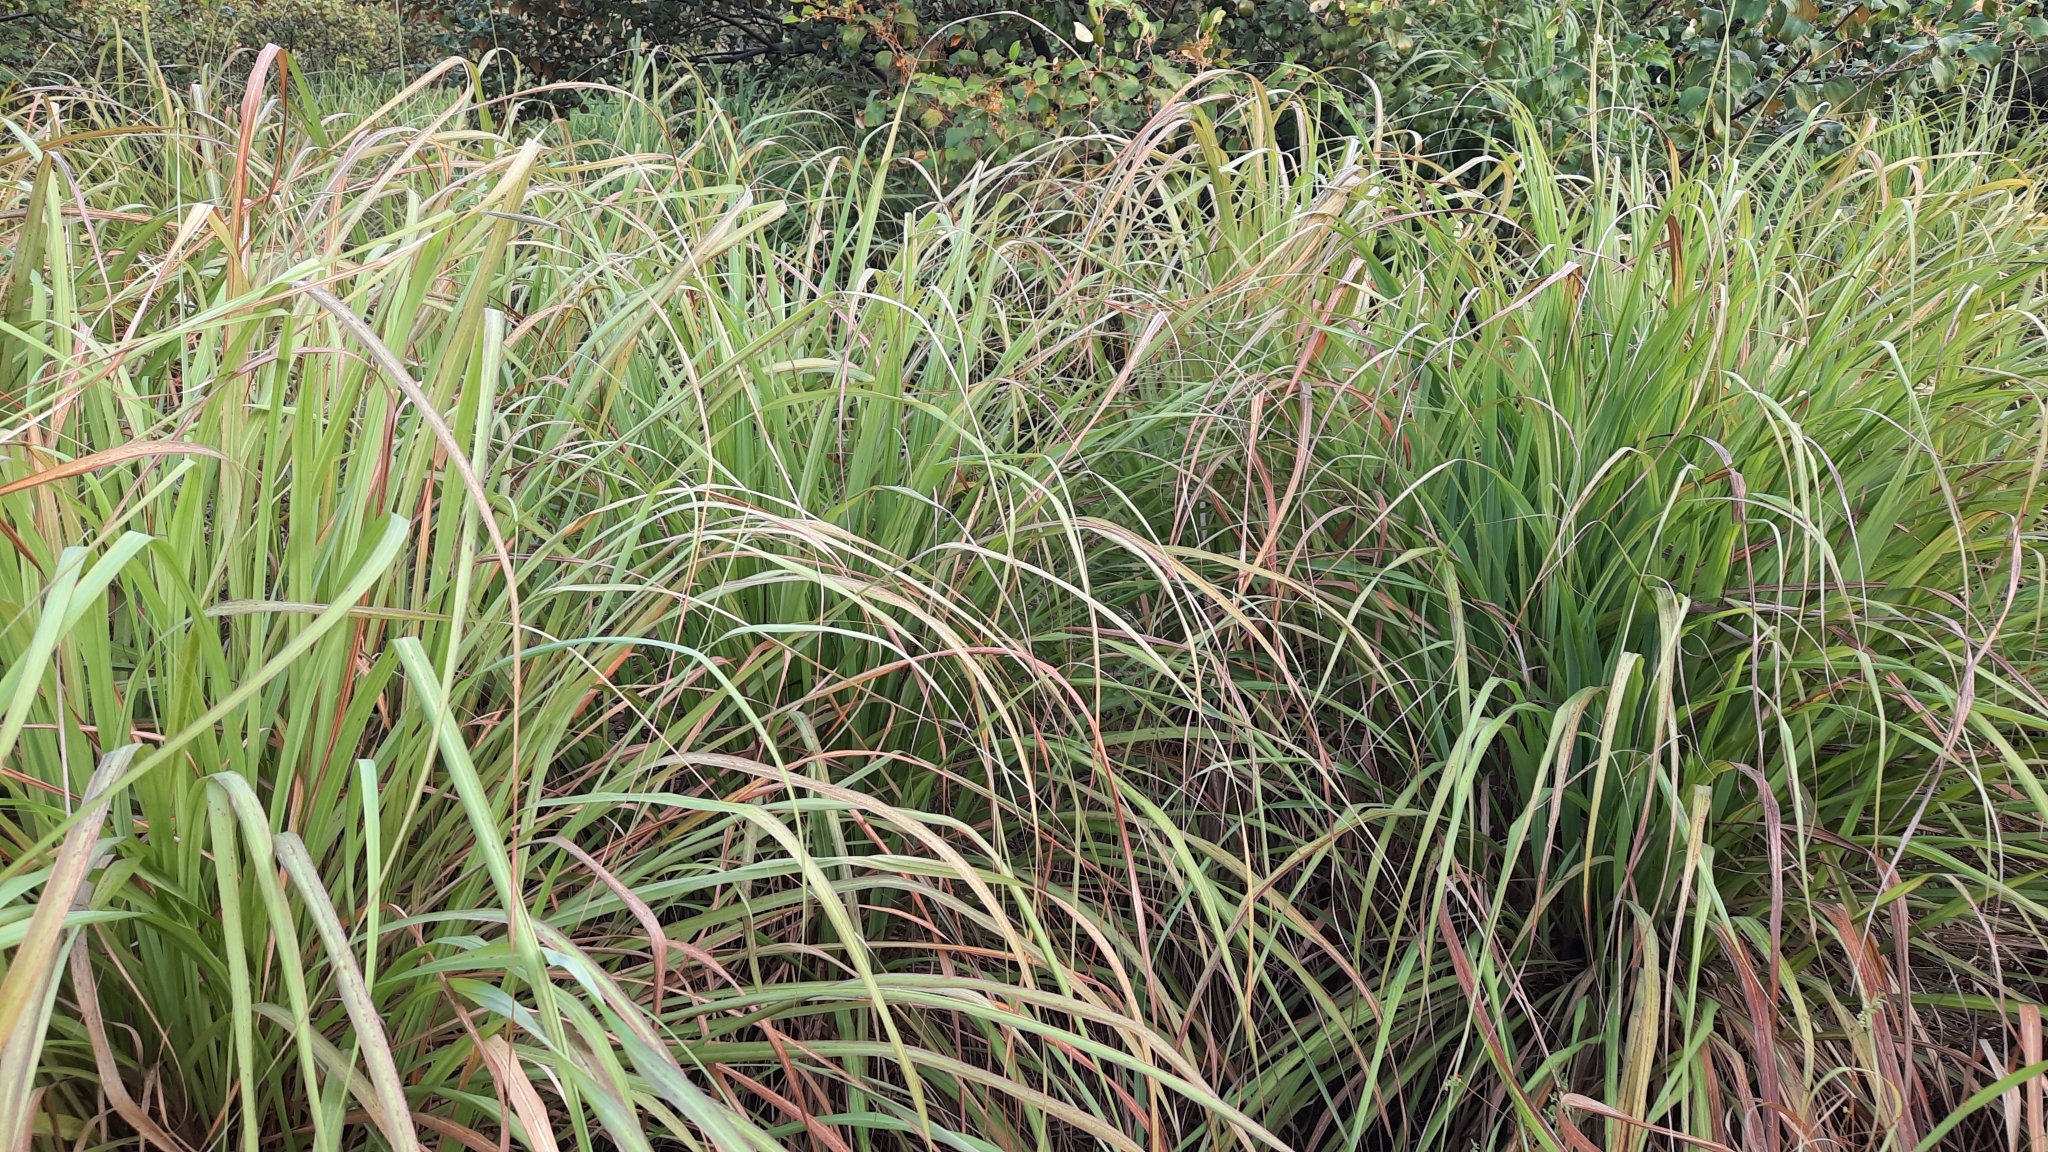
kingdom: Plantae
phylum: Tracheophyta
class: Liliopsida
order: Poales
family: Poaceae
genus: Cymbopogon
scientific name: Cymbopogon citratus
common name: Lemon grass
